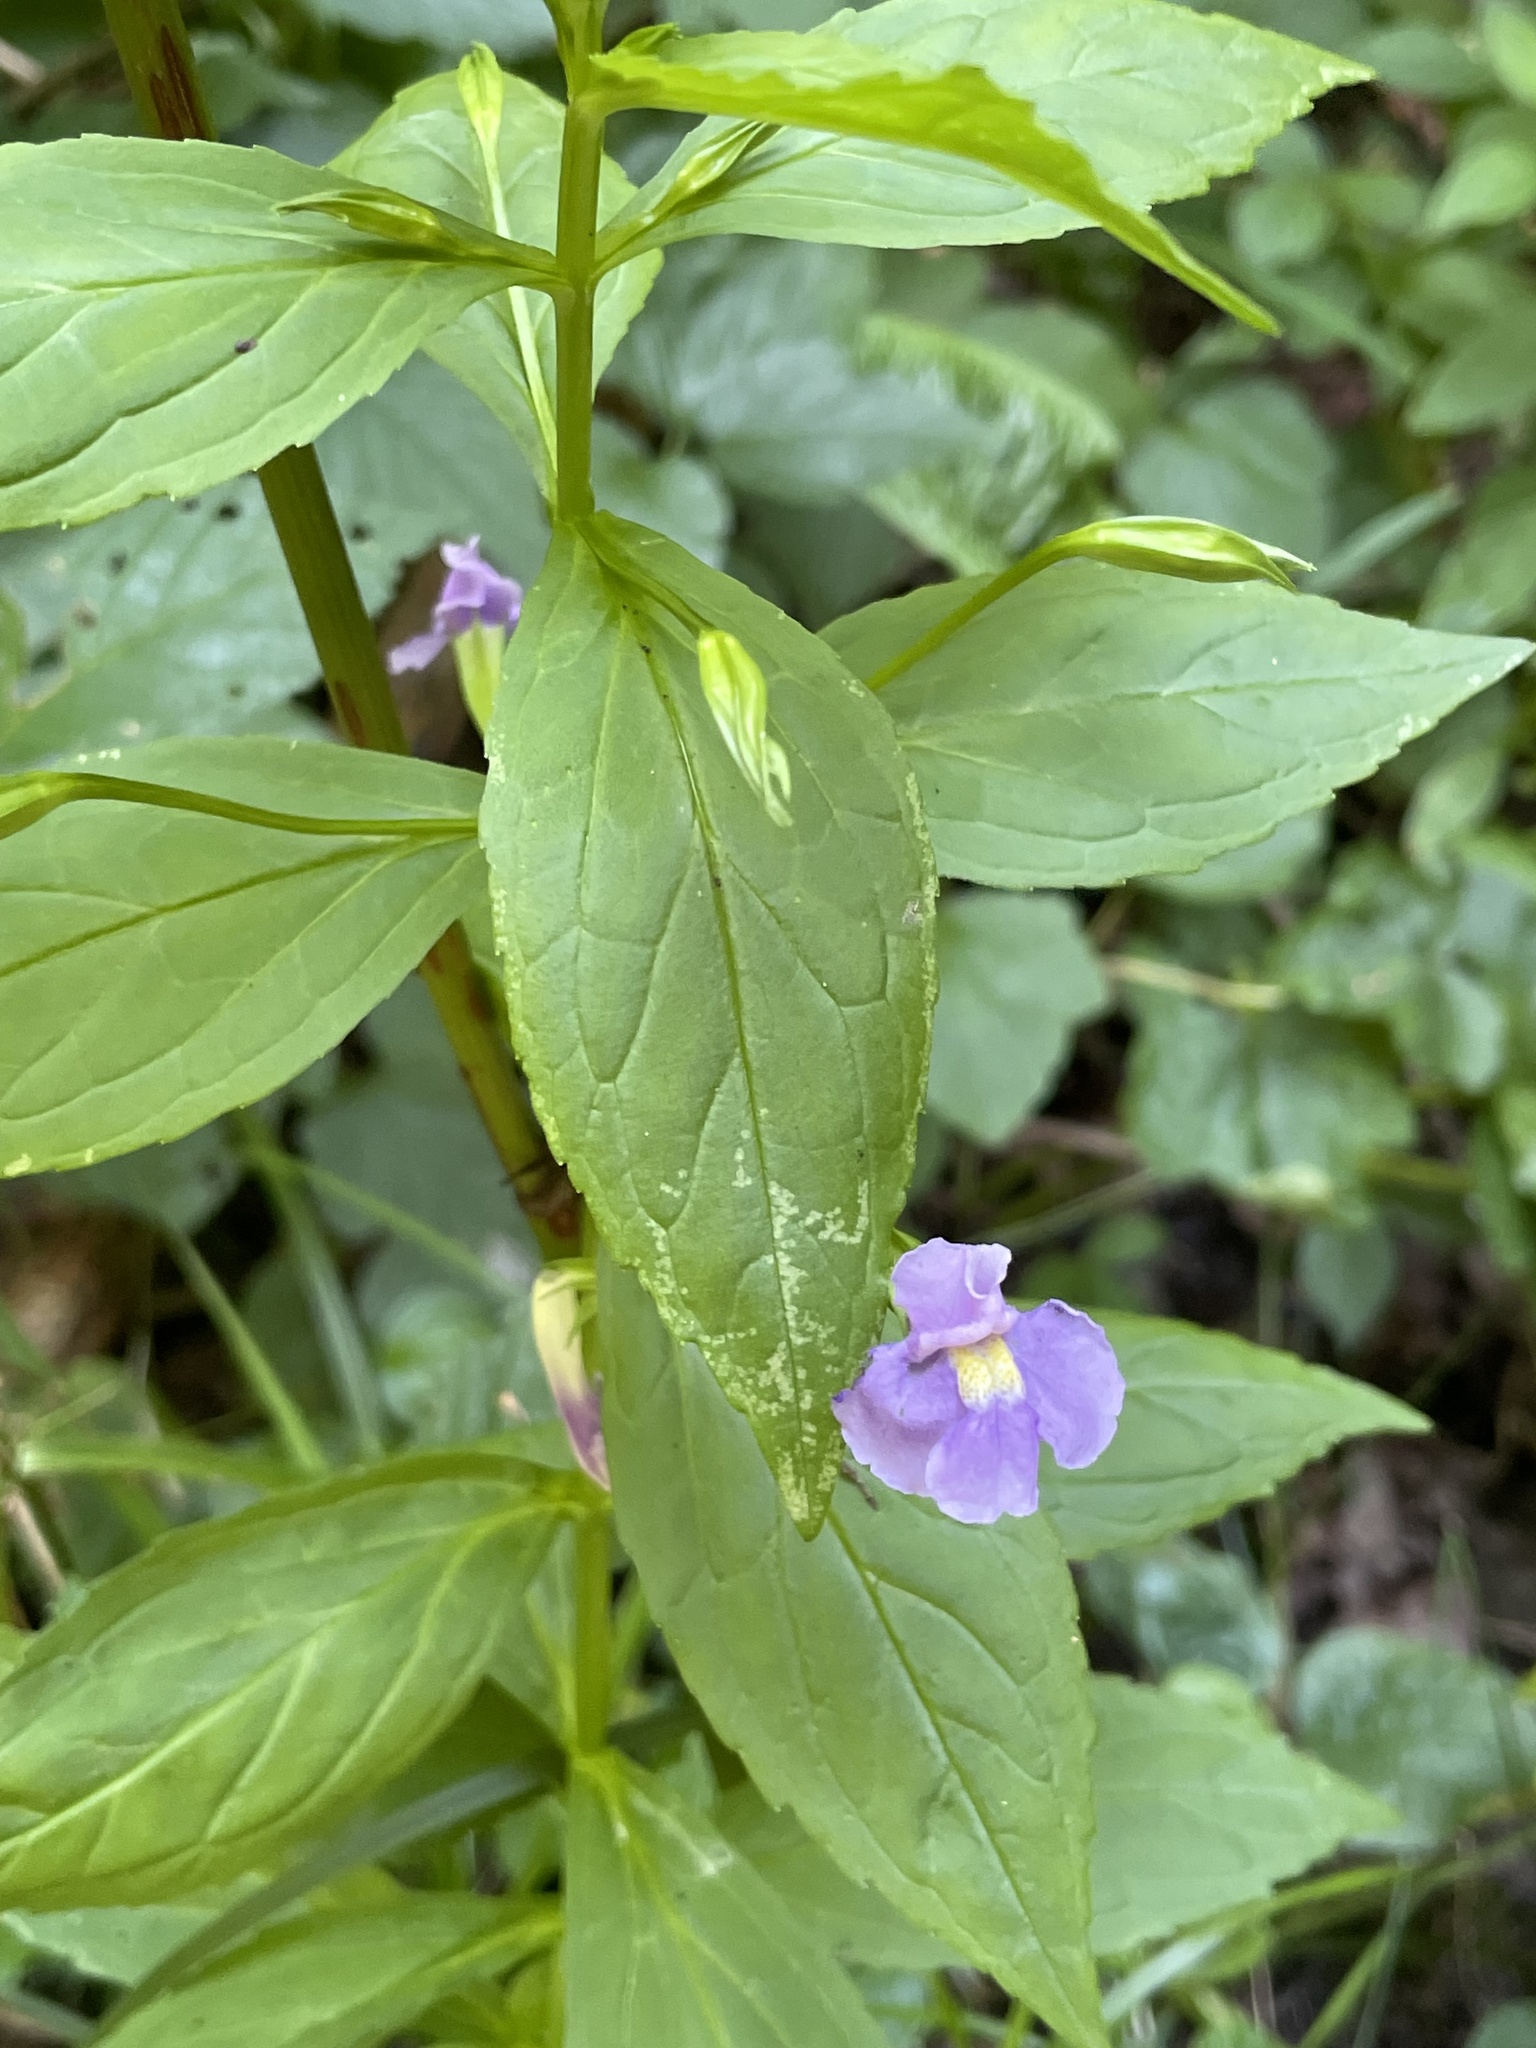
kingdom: Plantae
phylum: Tracheophyta
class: Magnoliopsida
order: Lamiales
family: Phrymaceae
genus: Mimulus
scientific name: Mimulus ringens
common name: Allegheny monkeyflower
